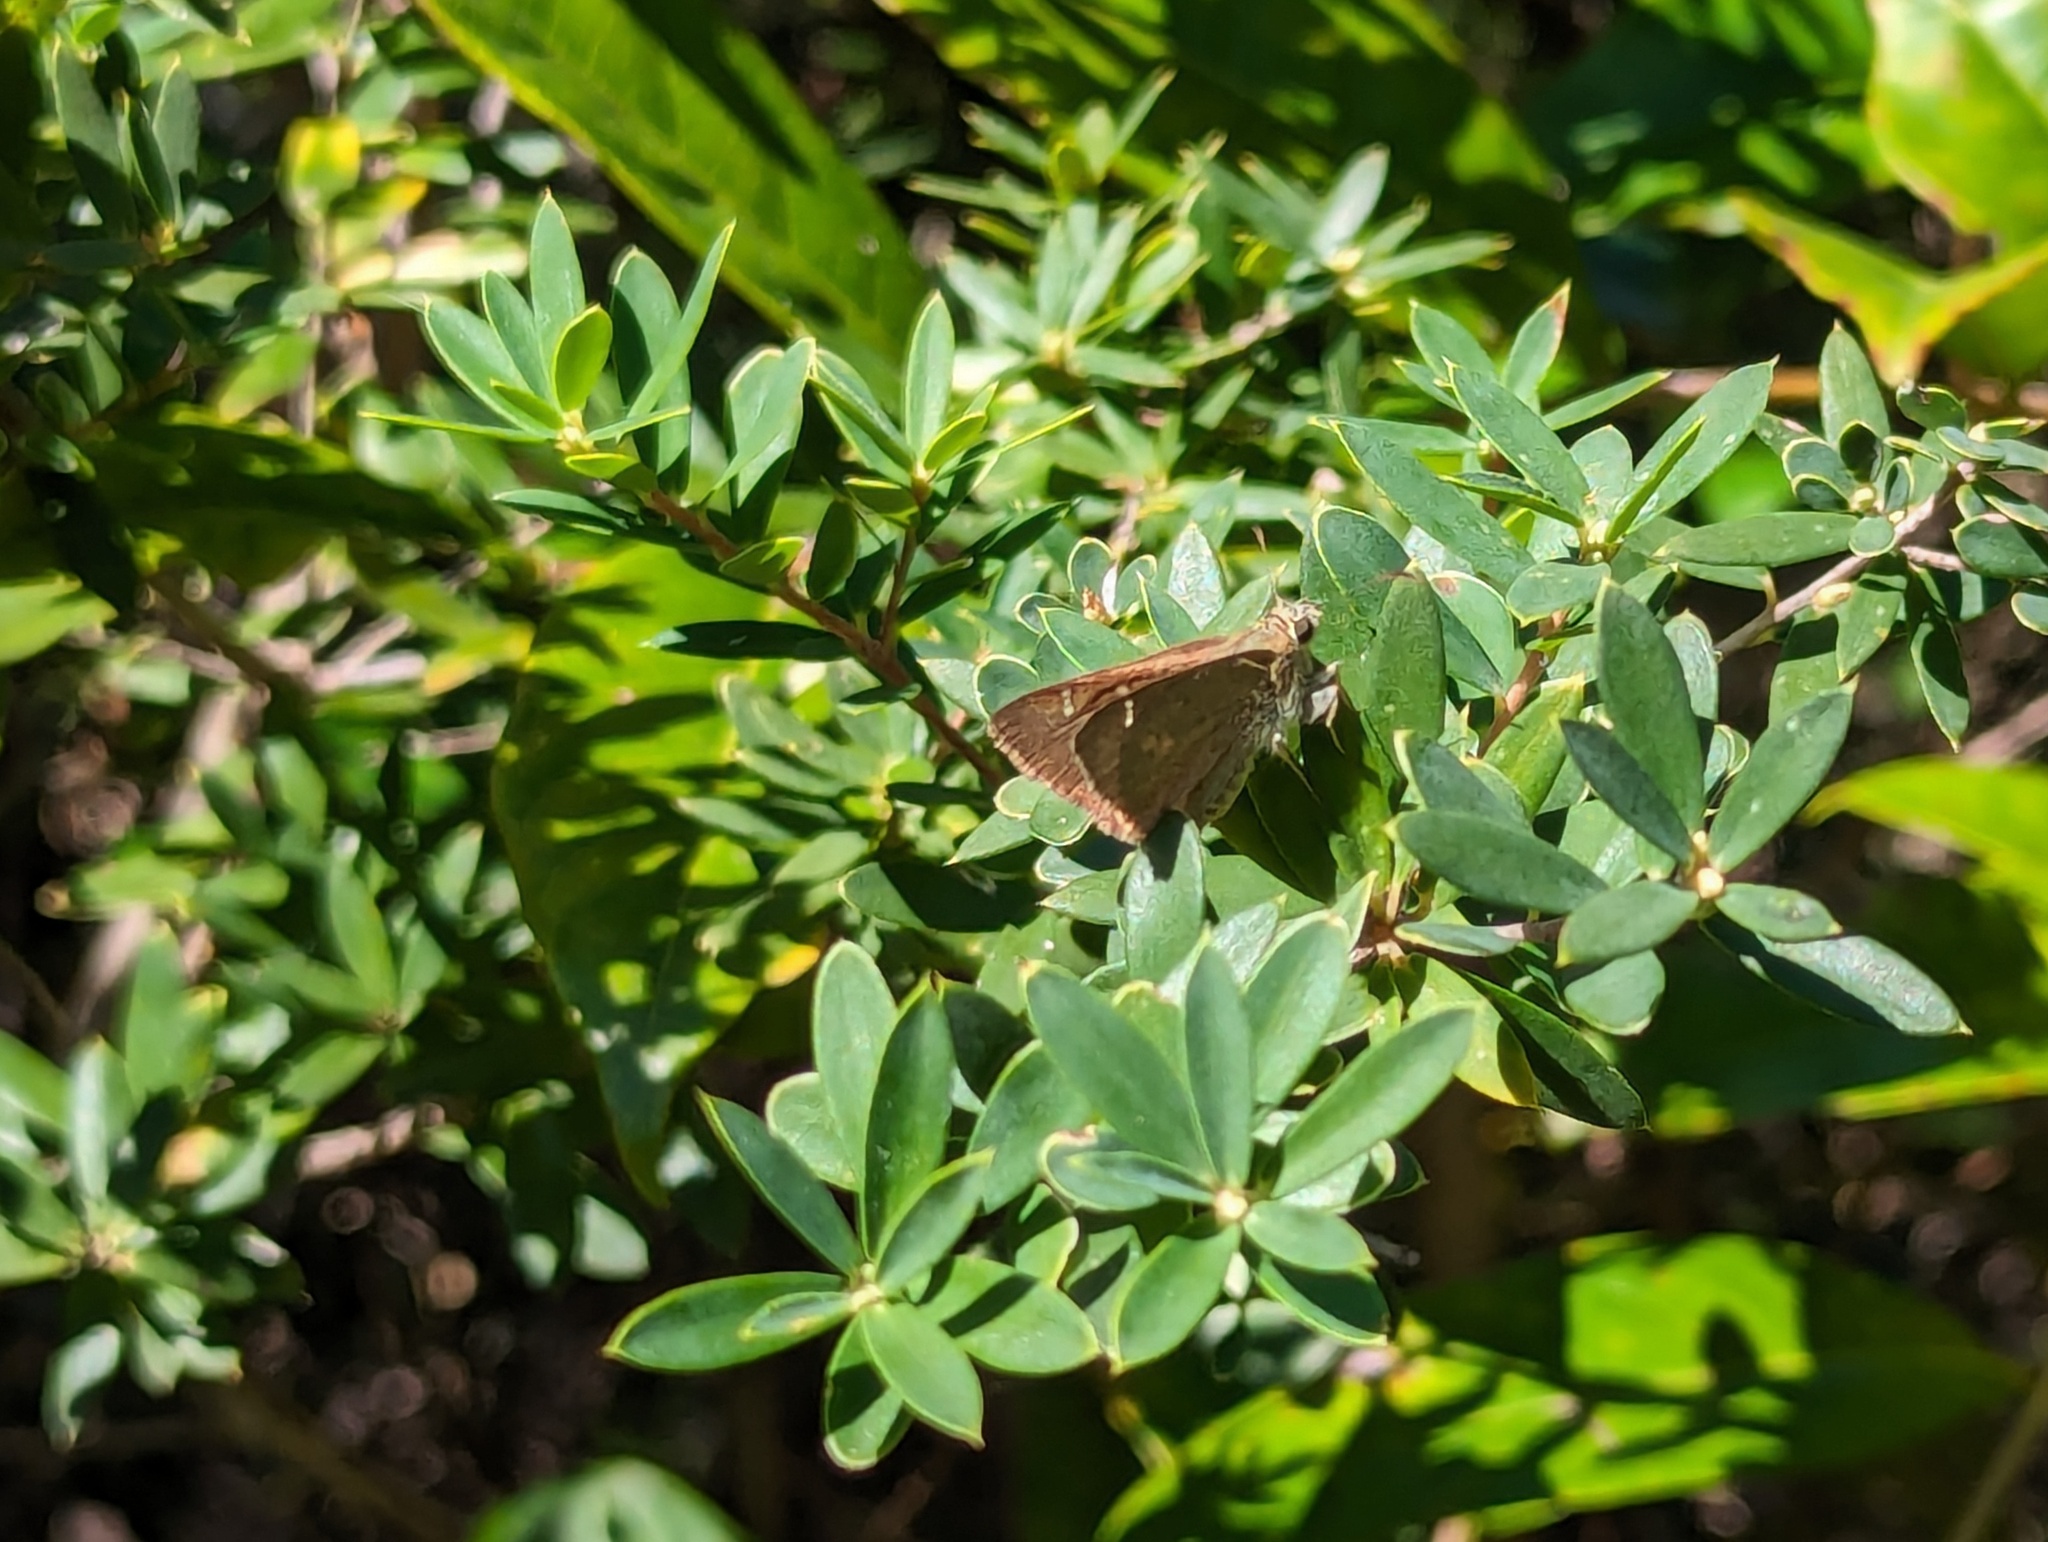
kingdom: Animalia
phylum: Arthropoda
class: Insecta
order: Lepidoptera
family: Hesperiidae
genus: Toxidia
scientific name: Toxidia
